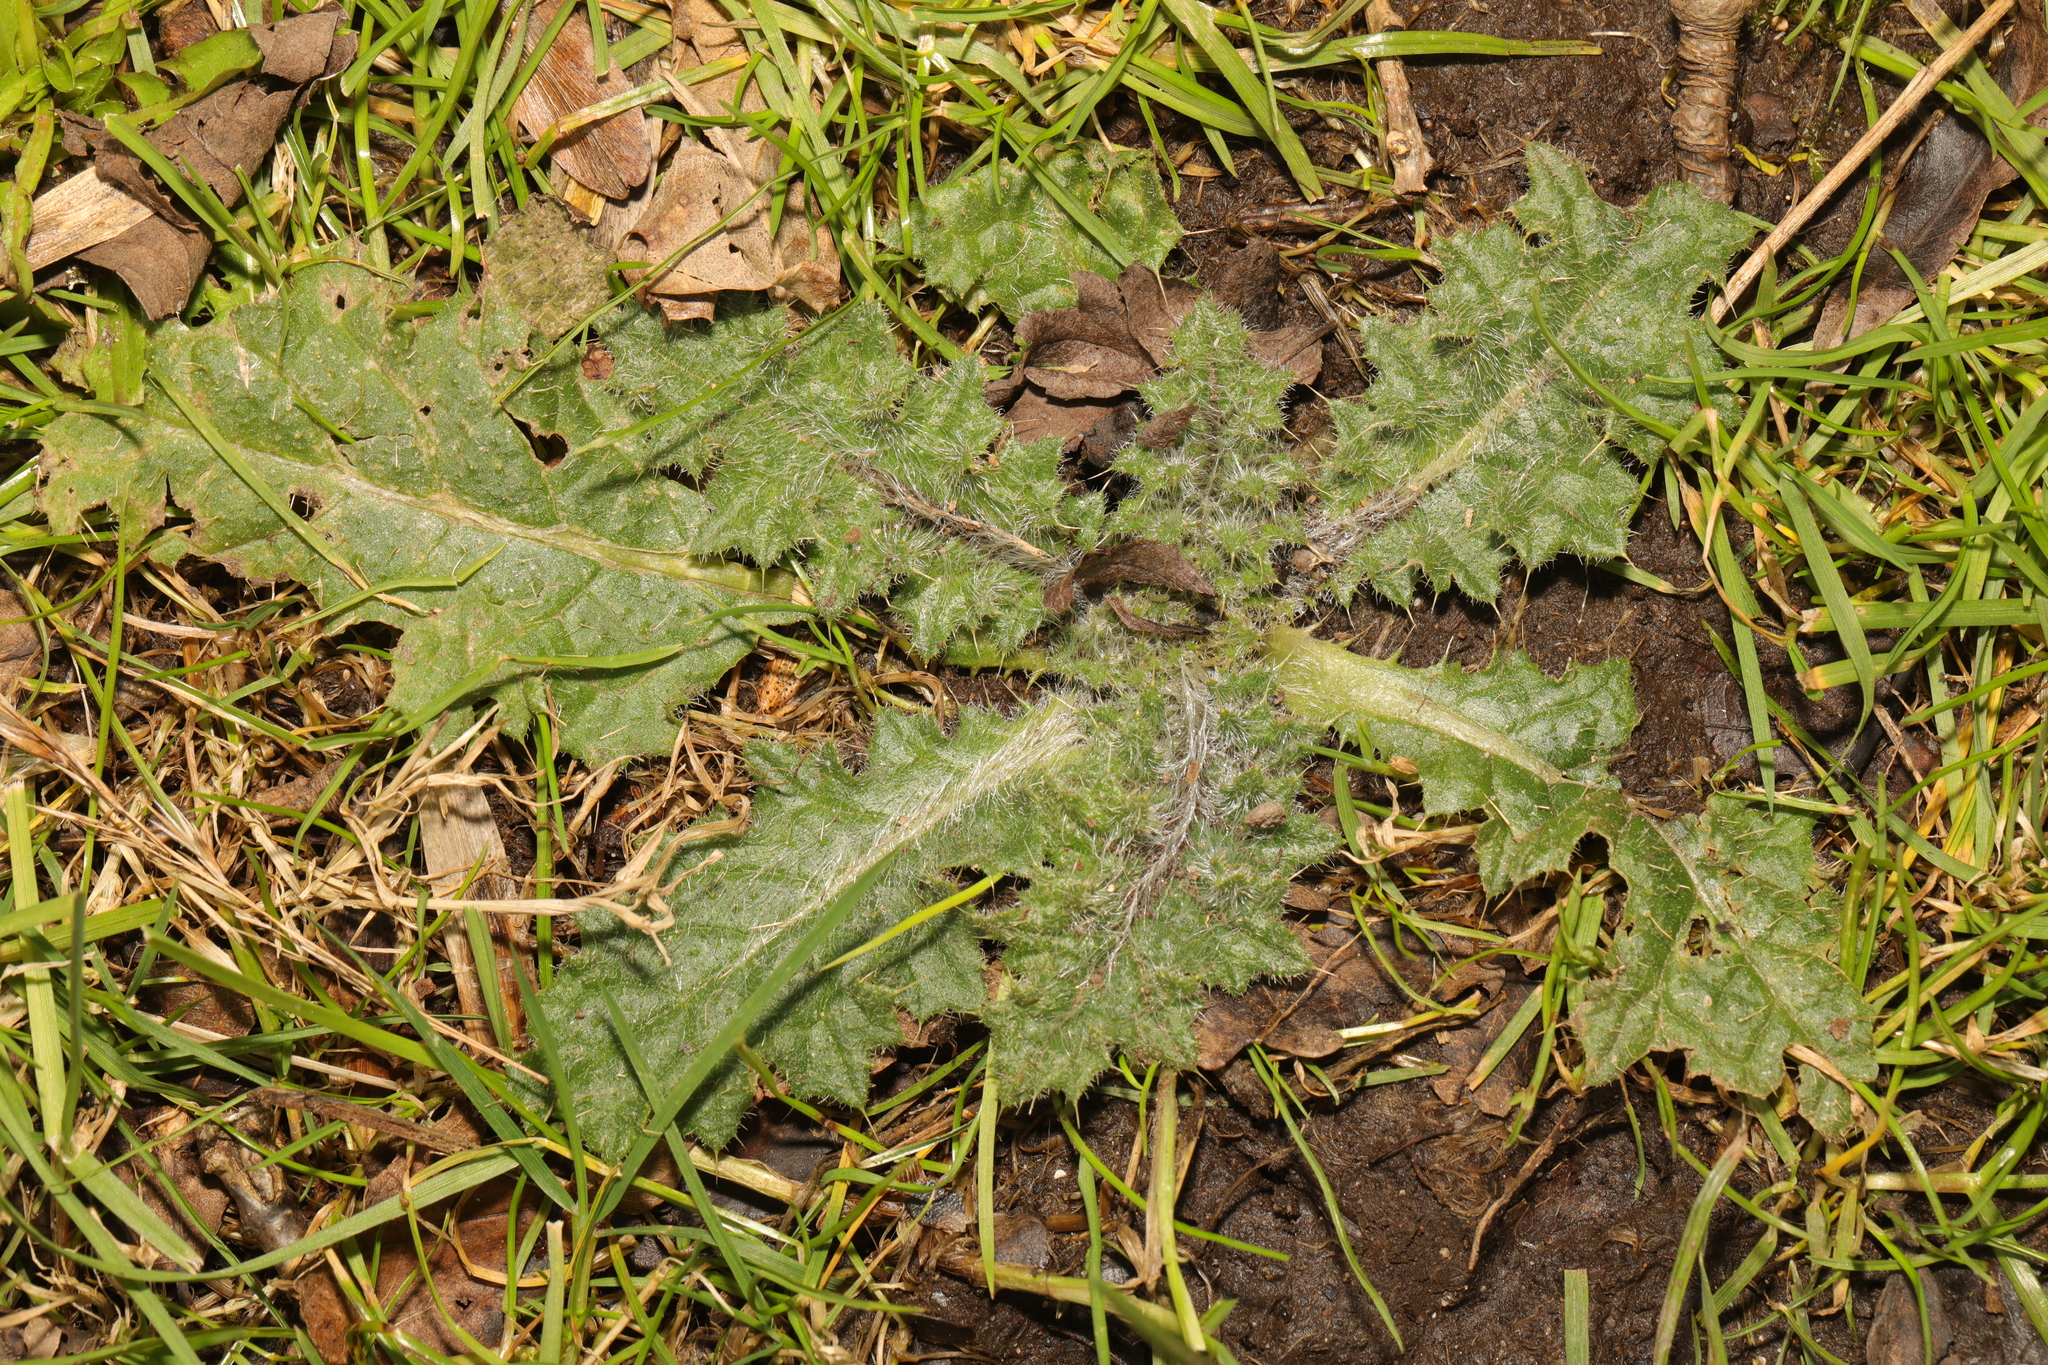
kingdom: Plantae
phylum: Tracheophyta
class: Magnoliopsida
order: Asterales
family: Asteraceae
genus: Cirsium
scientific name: Cirsium vulgare
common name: Bull thistle
